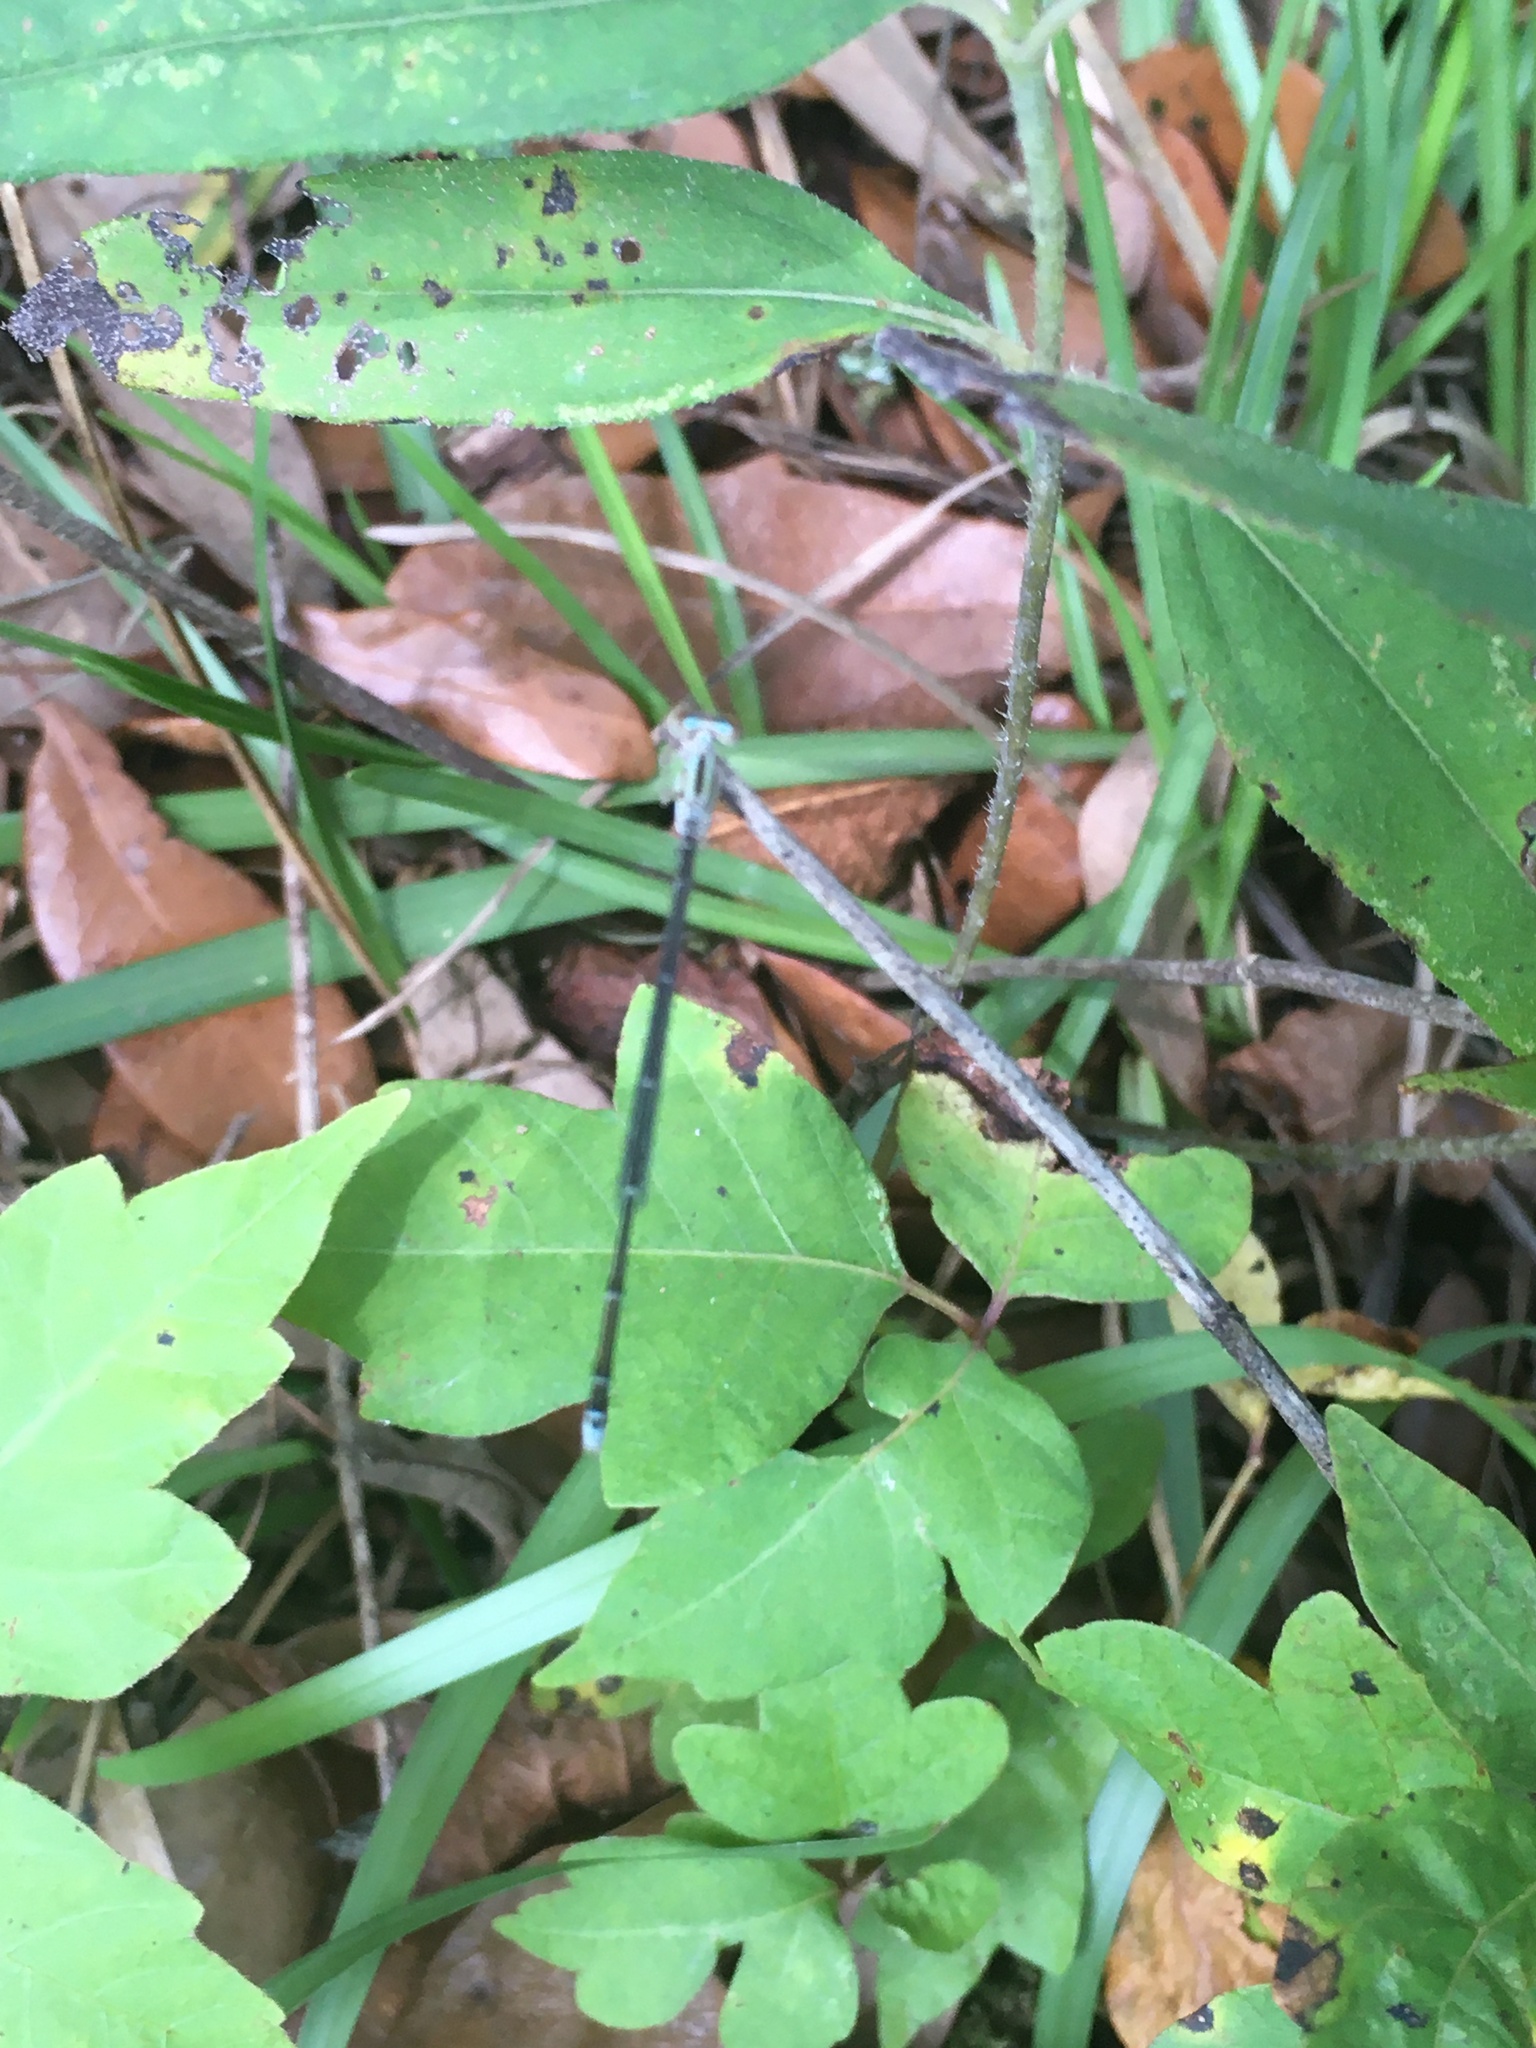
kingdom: Animalia
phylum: Arthropoda
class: Insecta
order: Odonata
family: Coenagrionidae
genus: Enallagma
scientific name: Enallagma vesperum
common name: Vesper bluet
